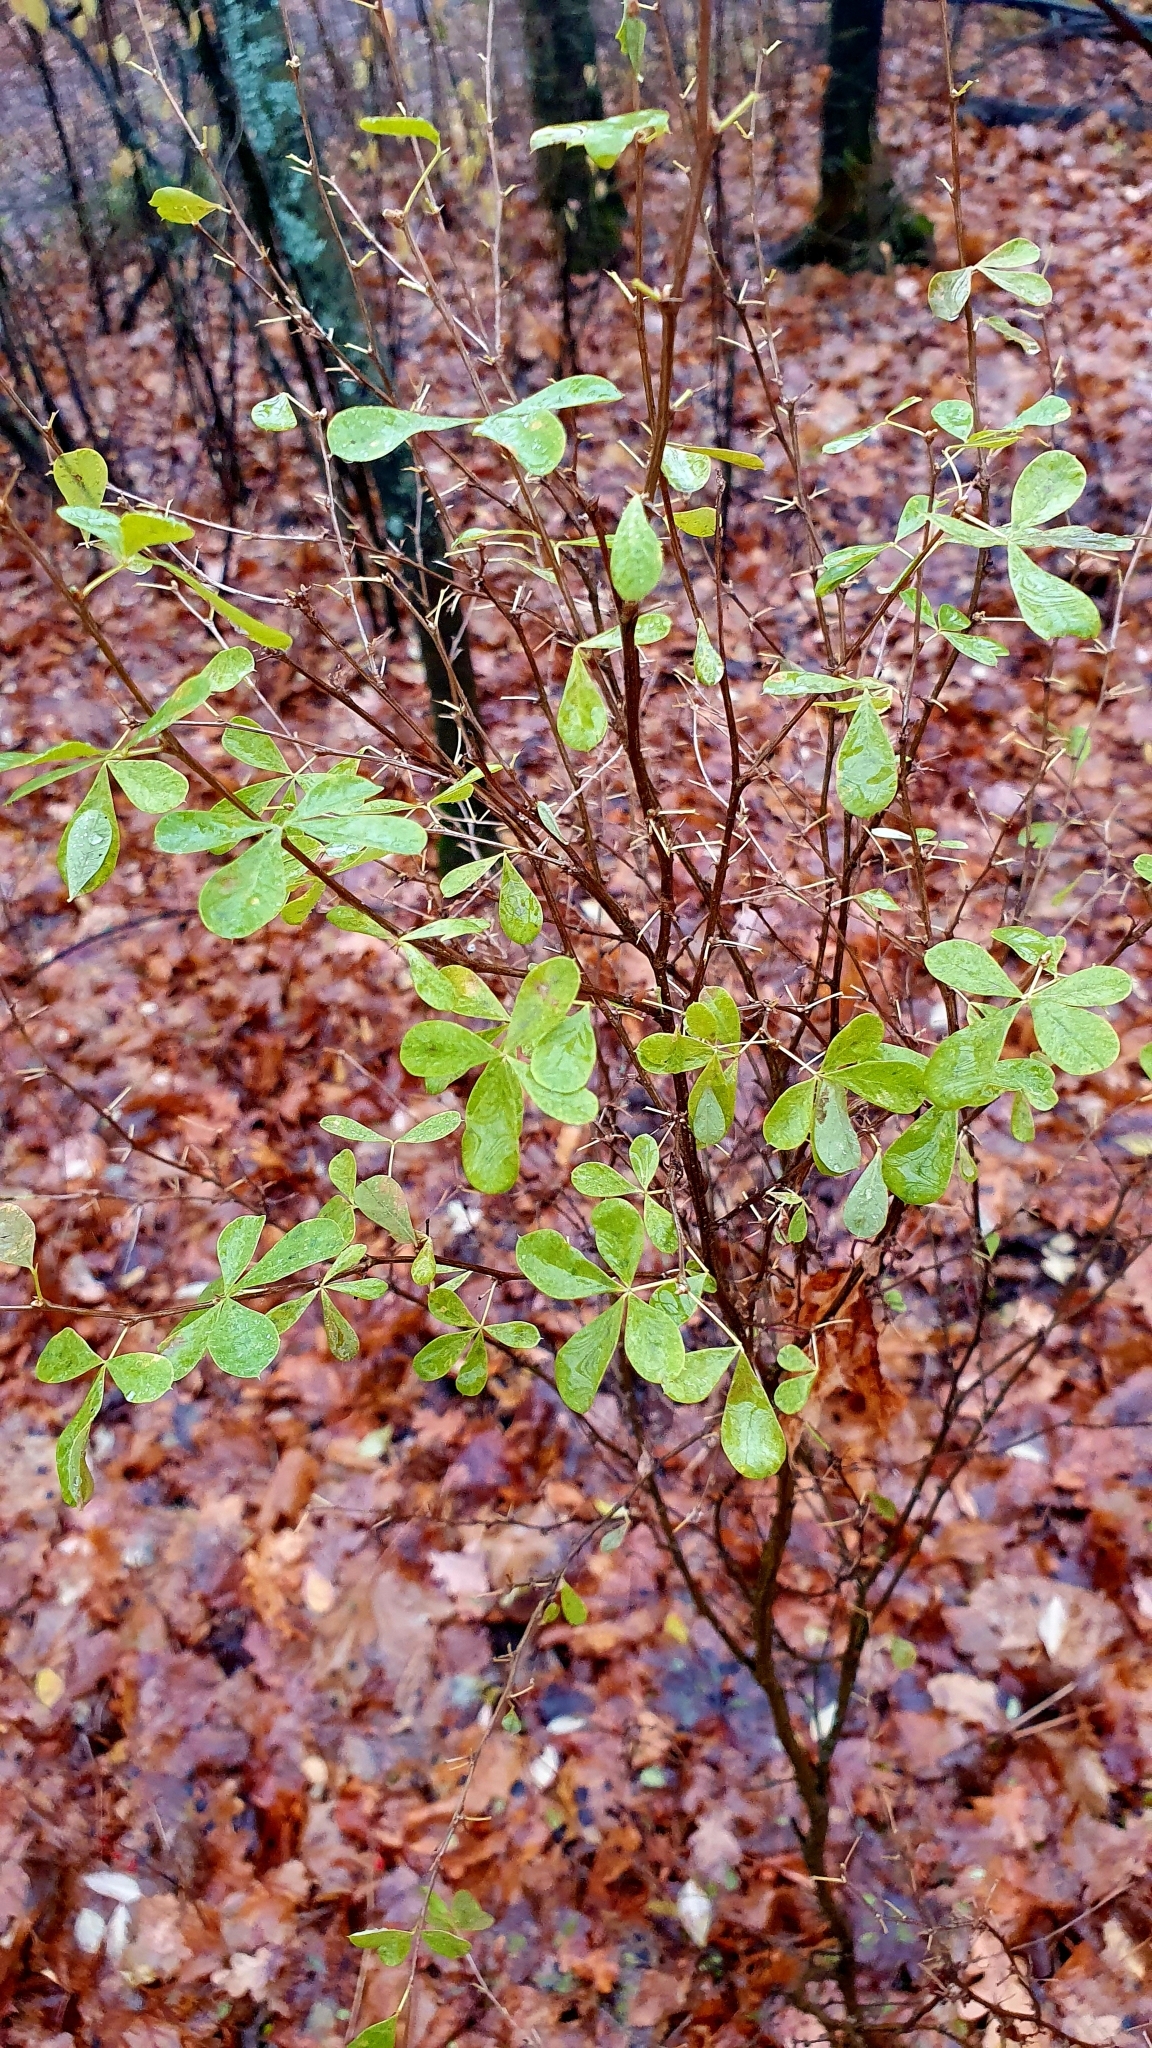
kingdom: Plantae
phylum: Tracheophyta
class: Magnoliopsida
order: Fabales
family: Fabaceae
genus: Caragana
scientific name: Caragana frutex
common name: Russian peashrub
